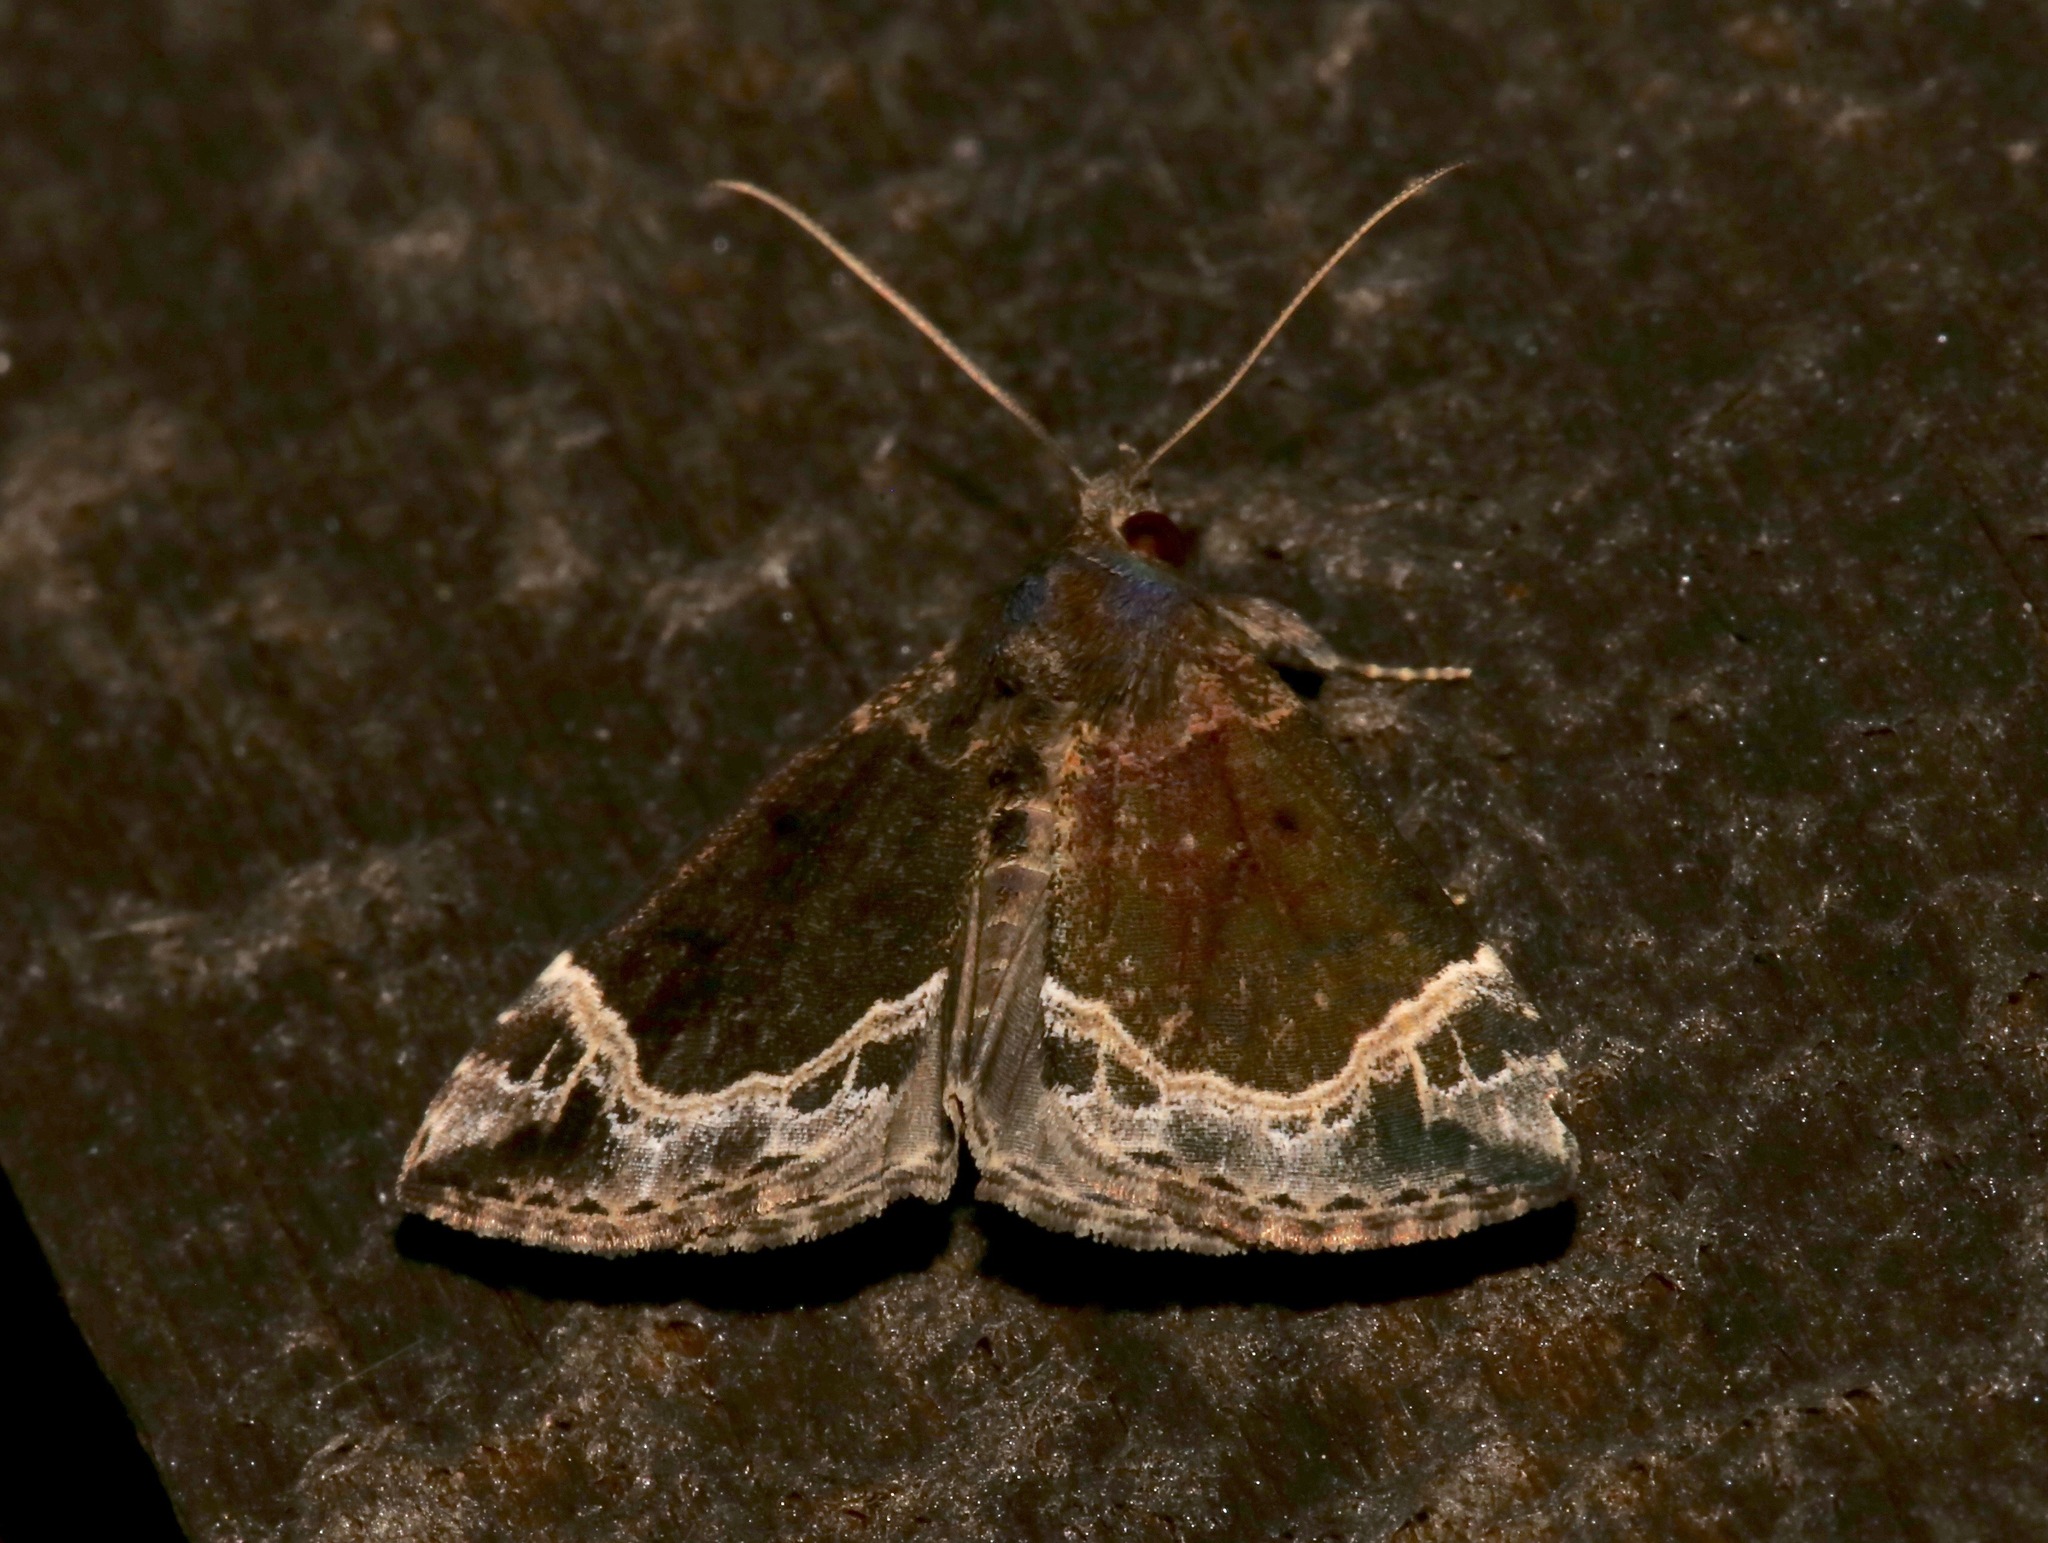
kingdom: Animalia
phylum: Arthropoda
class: Insecta
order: Lepidoptera
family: Erebidae
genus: Hypena
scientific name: Hypena abalienalis
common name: White-lined snout
